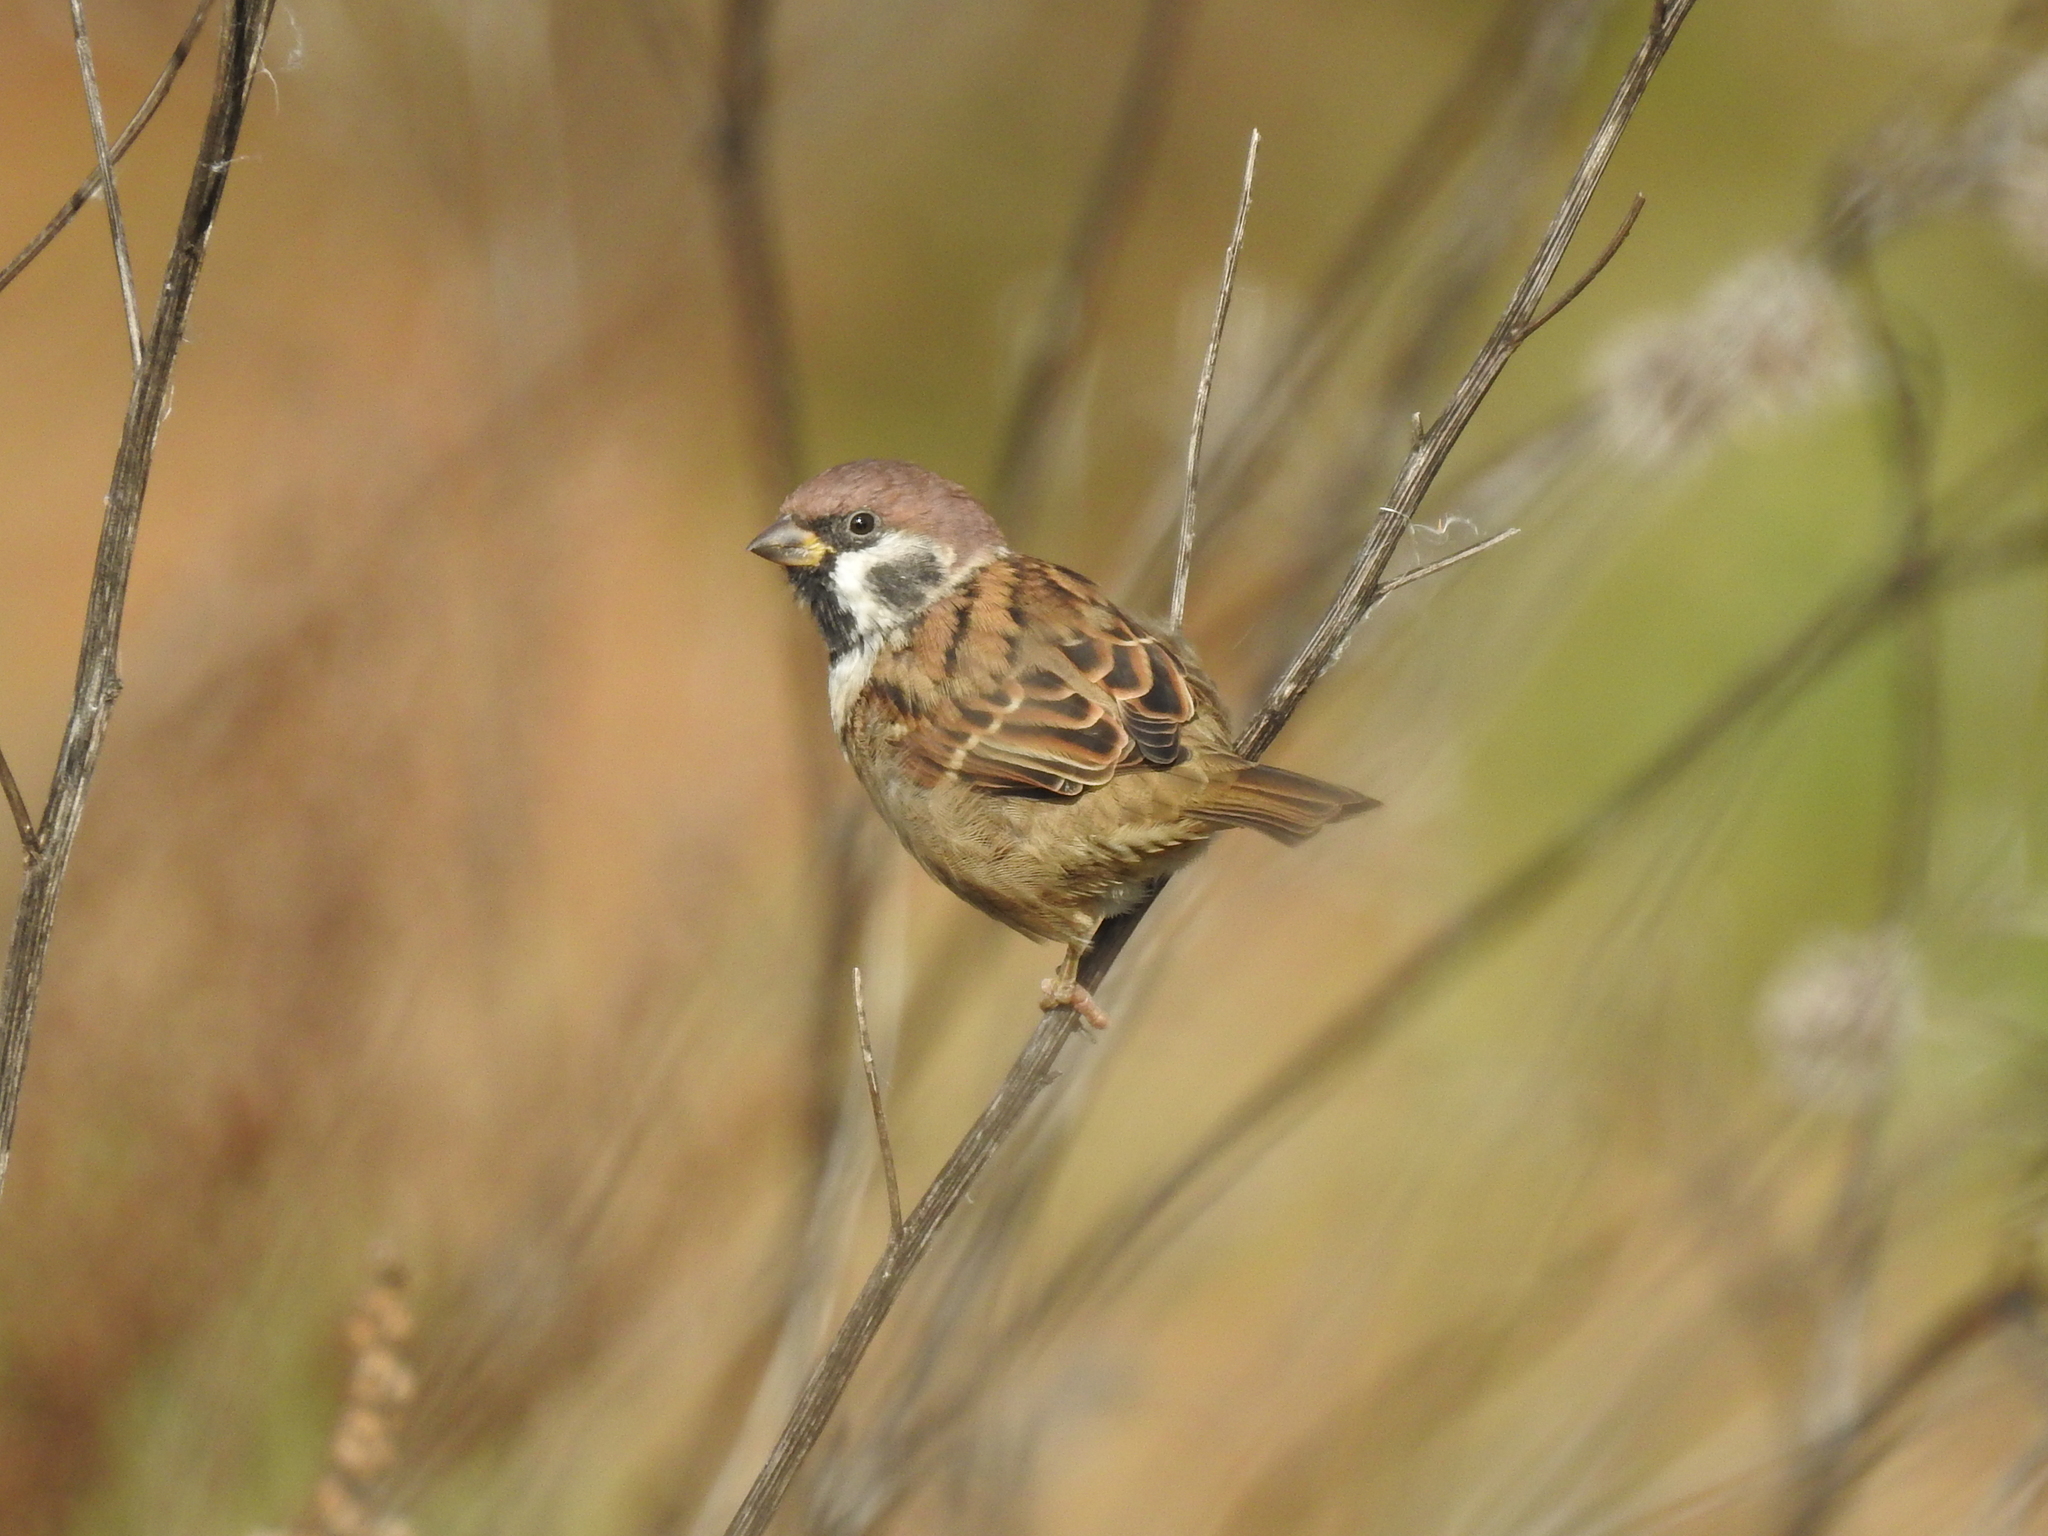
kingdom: Animalia
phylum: Chordata
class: Aves
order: Passeriformes
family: Passeridae
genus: Passer
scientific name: Passer montanus
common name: Eurasian tree sparrow
